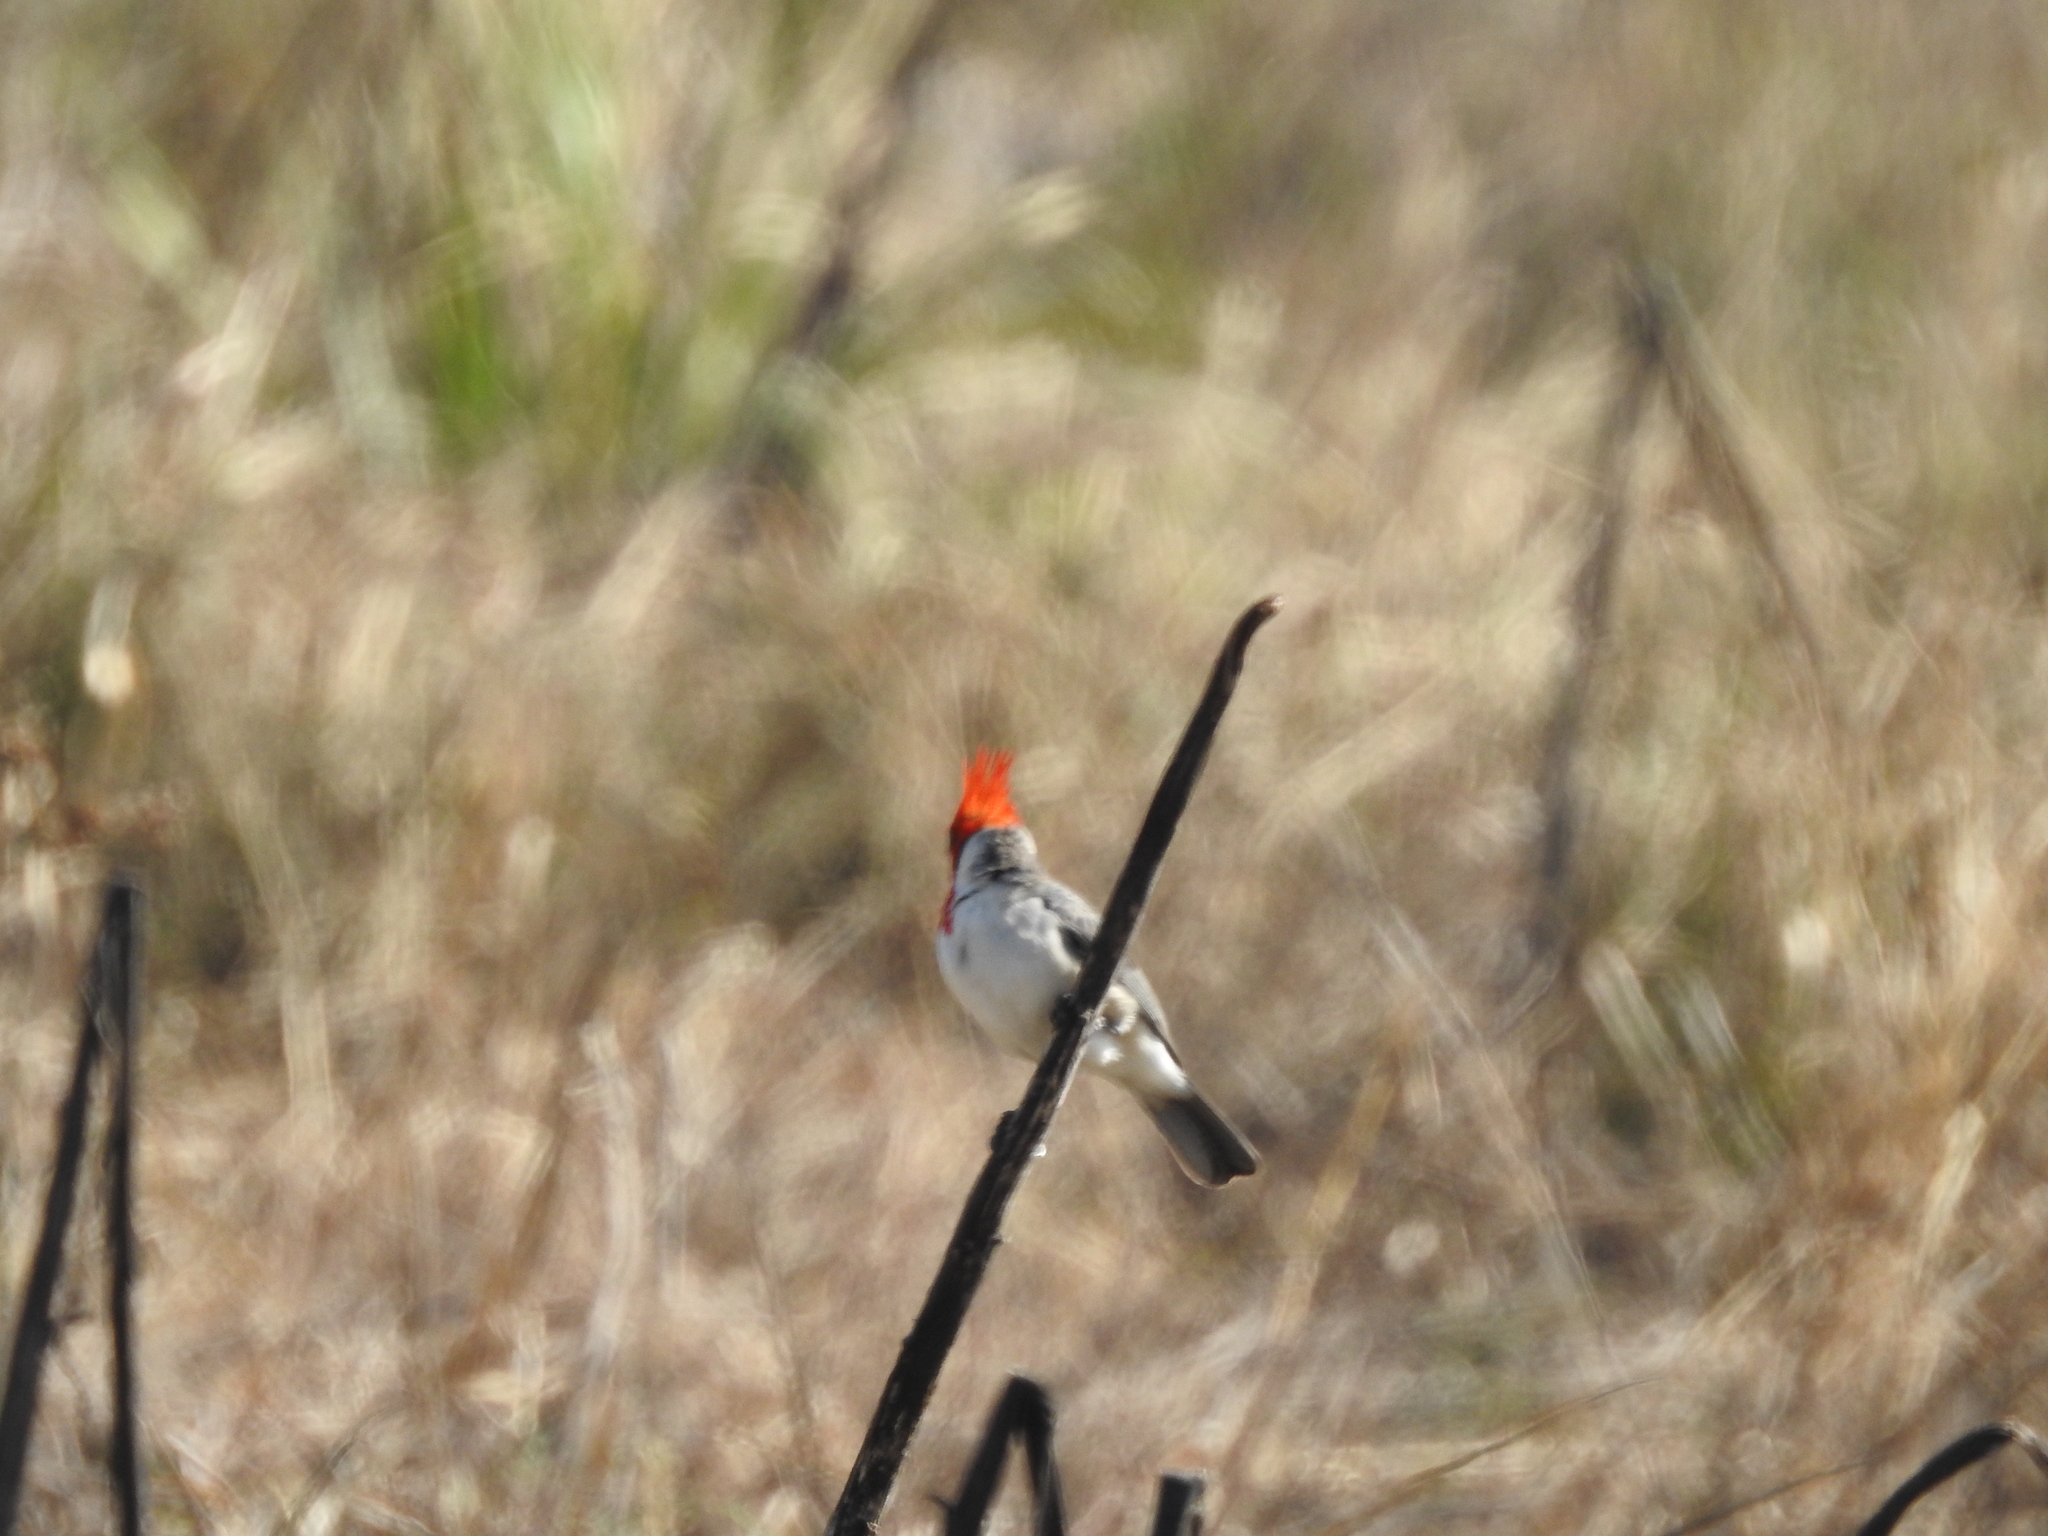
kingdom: Animalia
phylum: Chordata
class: Aves
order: Passeriformes
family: Thraupidae
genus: Paroaria
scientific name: Paroaria coronata
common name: Red-crested cardinal
